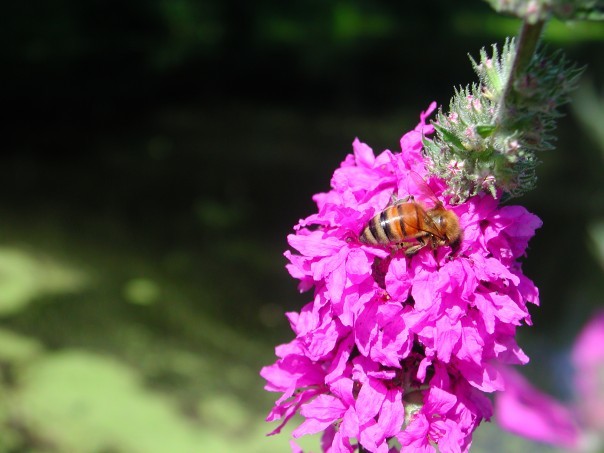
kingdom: Animalia
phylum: Arthropoda
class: Insecta
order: Hymenoptera
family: Apidae
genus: Apis
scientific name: Apis mellifera
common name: Honey bee
